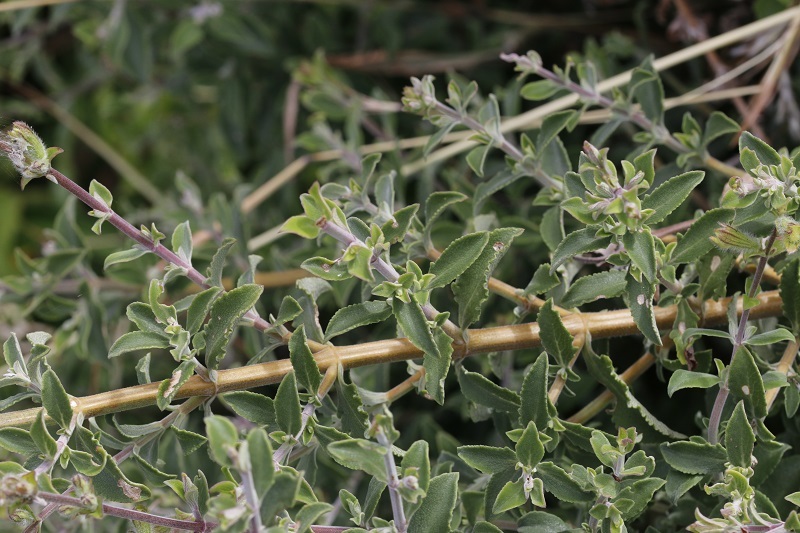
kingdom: Plantae
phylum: Tracheophyta
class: Magnoliopsida
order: Lamiales
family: Lamiaceae
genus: Salvia
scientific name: Salvia africana
